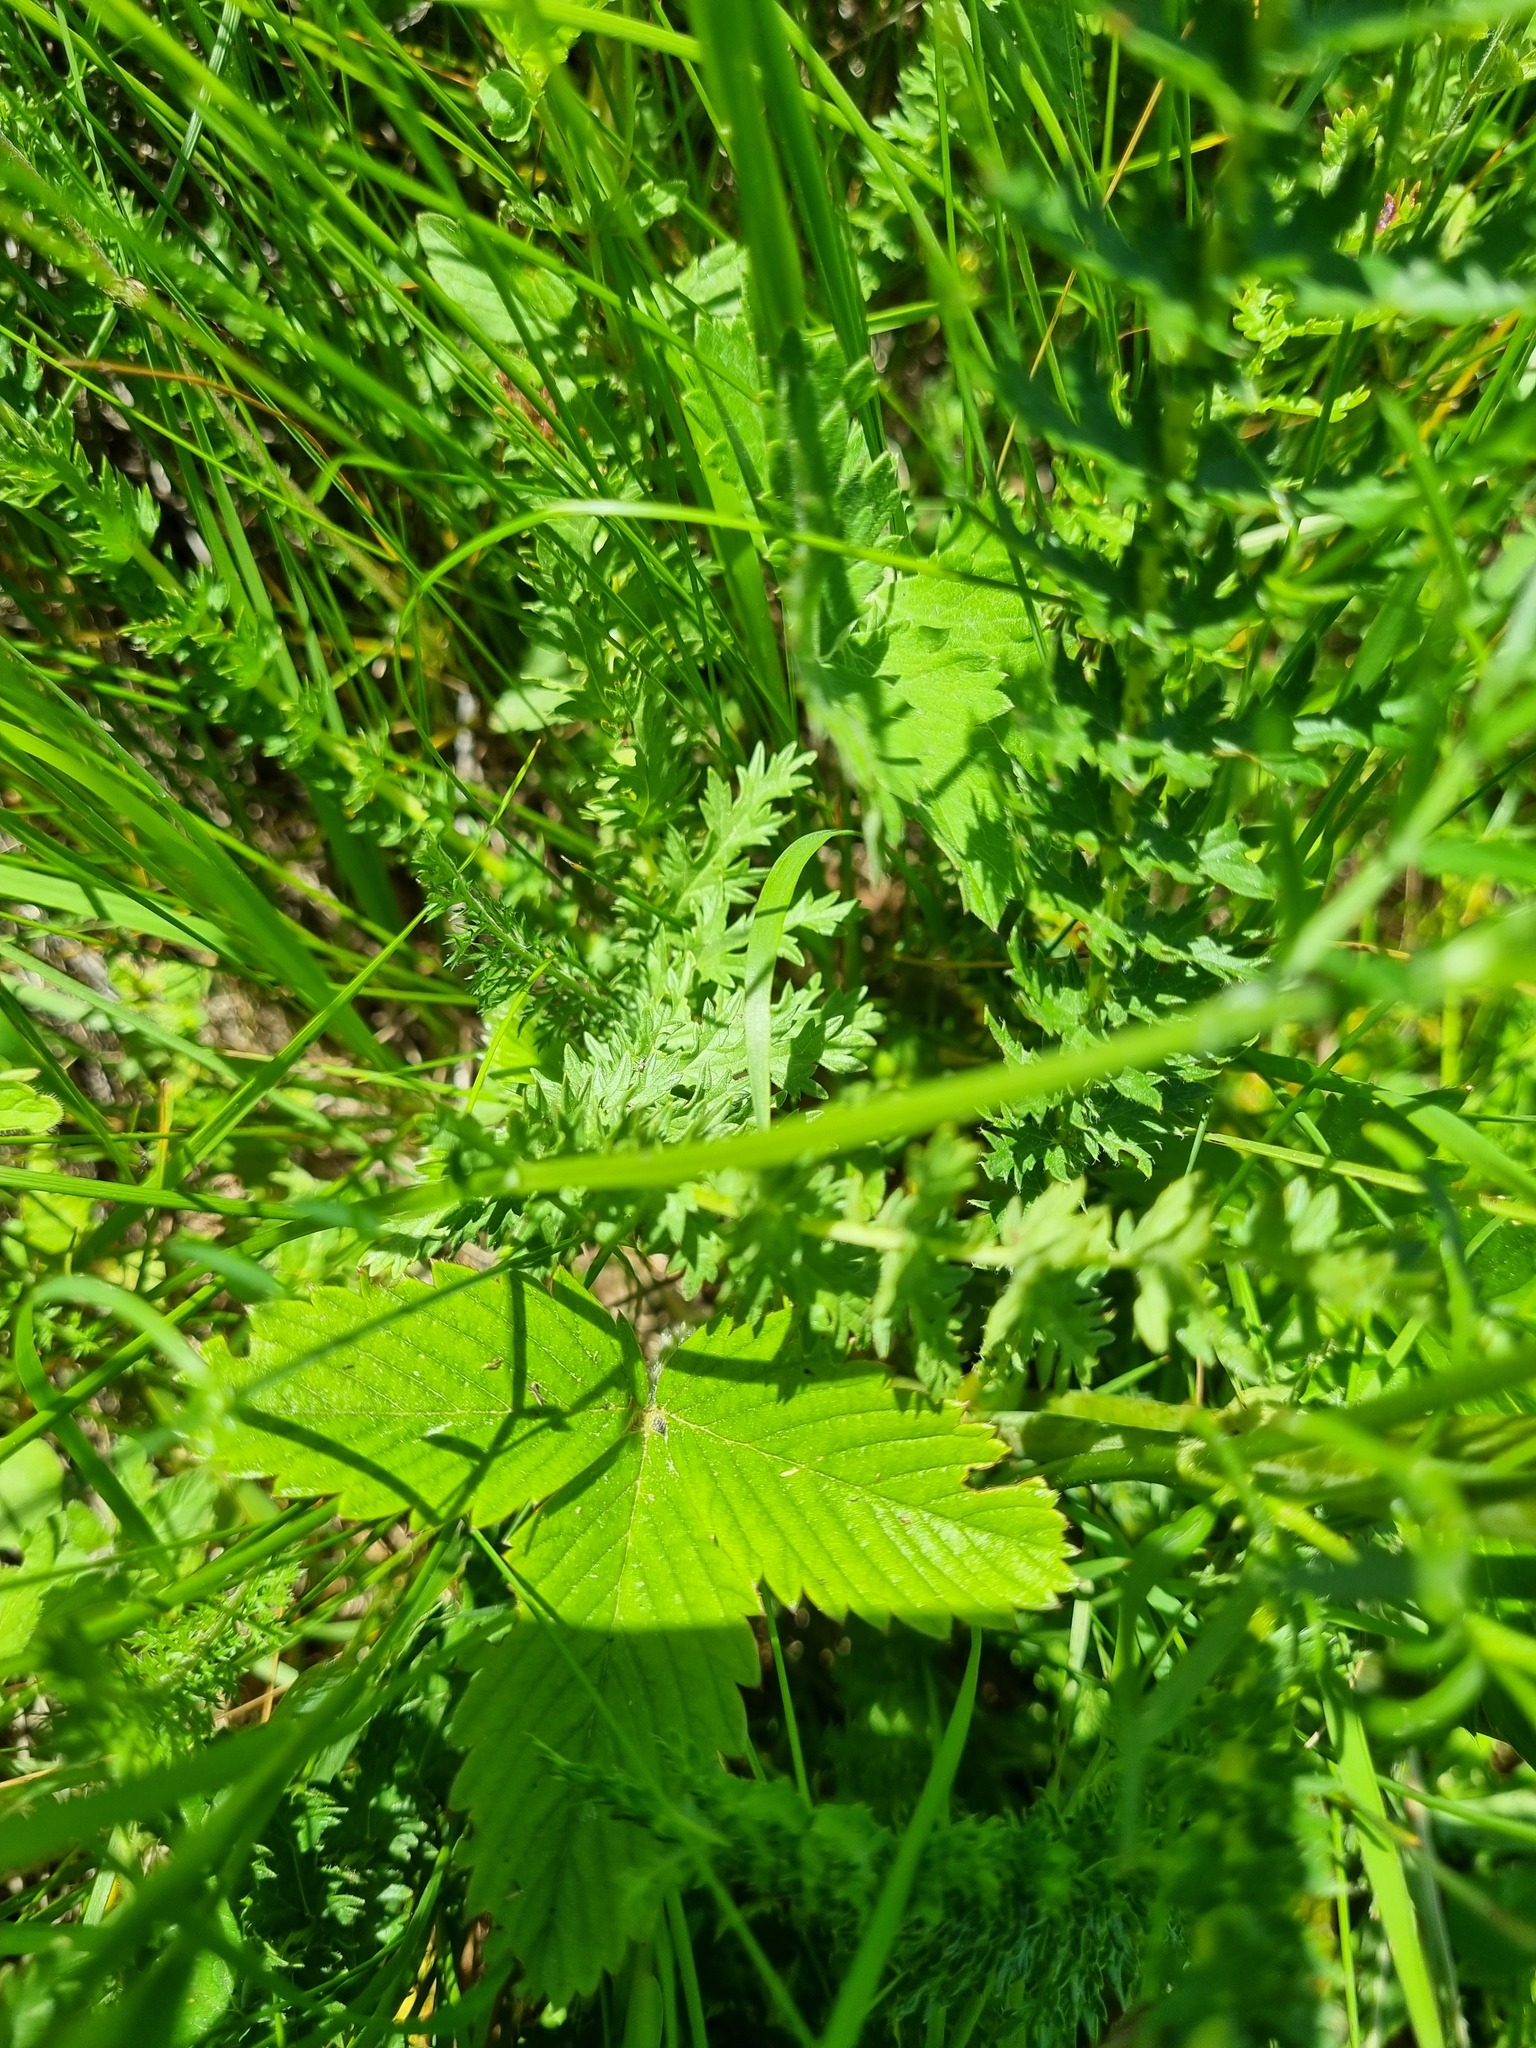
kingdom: Plantae
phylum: Tracheophyta
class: Magnoliopsida
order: Rosales
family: Rosaceae
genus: Fragaria
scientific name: Fragaria viridis
